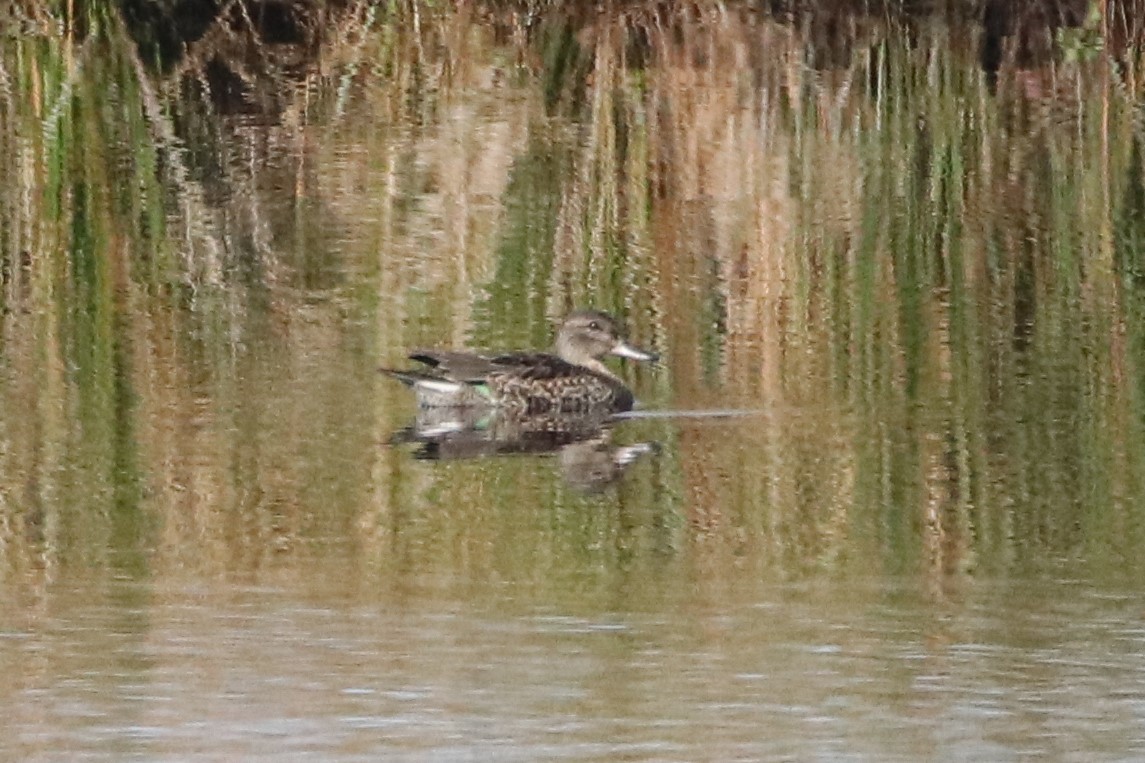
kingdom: Animalia
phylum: Chordata
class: Aves
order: Anseriformes
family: Anatidae
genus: Anas
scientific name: Anas crecca
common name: Eurasian teal
